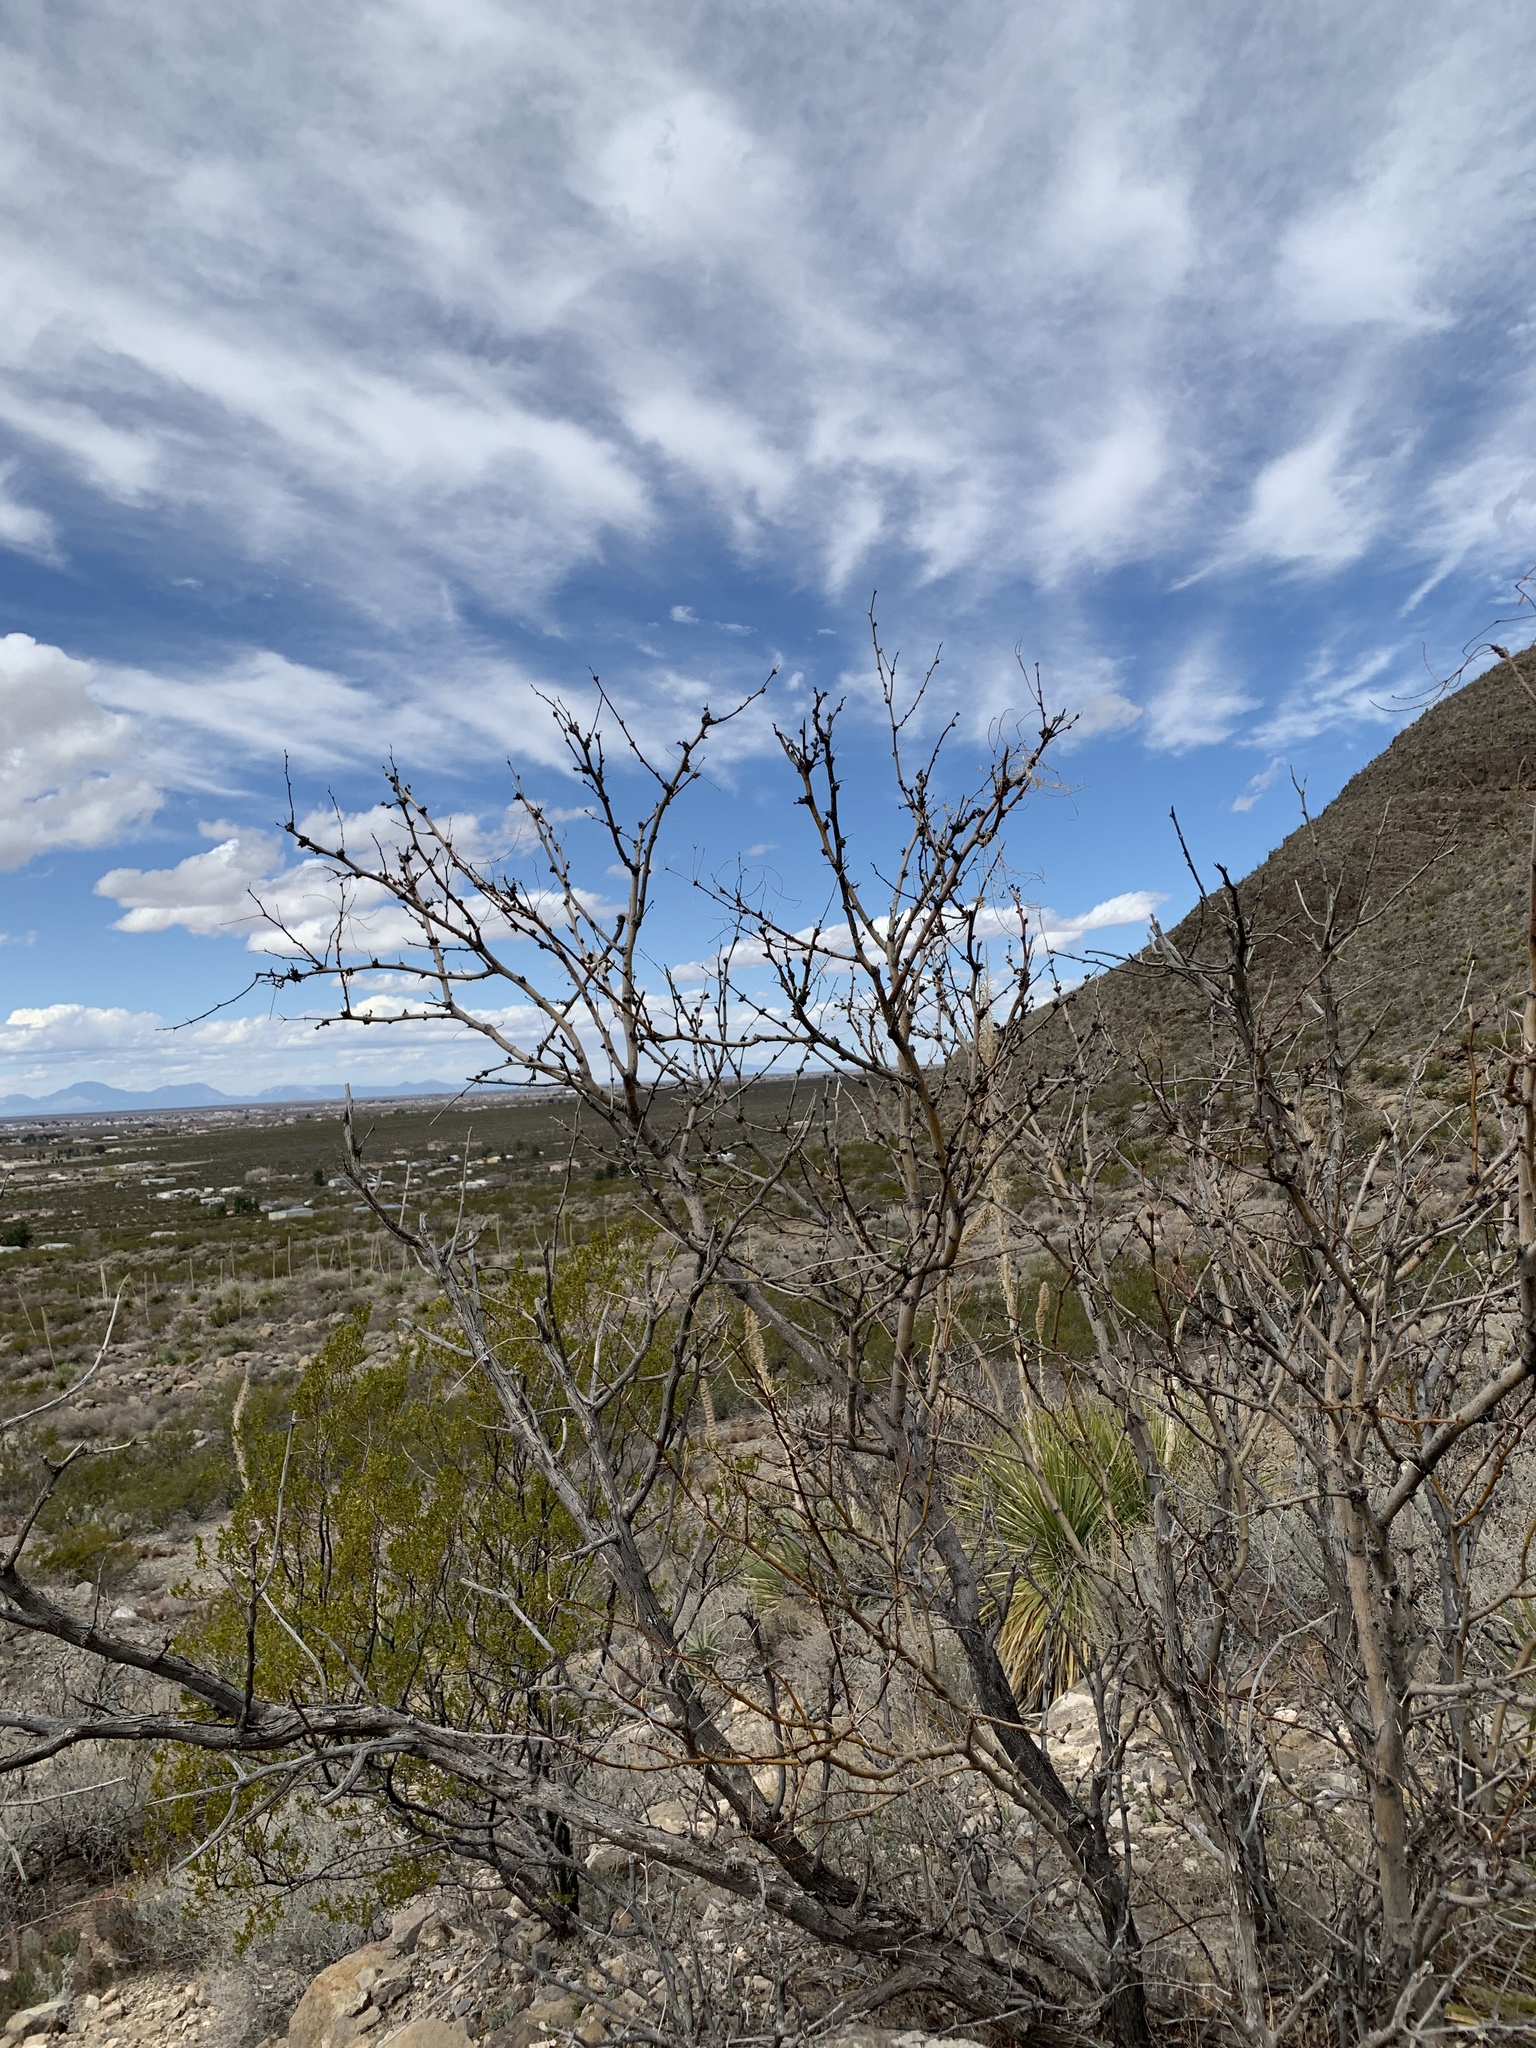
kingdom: Plantae
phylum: Tracheophyta
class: Magnoliopsida
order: Fabales
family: Fabaceae
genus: Prosopis
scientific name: Prosopis glandulosa
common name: Honey mesquite
